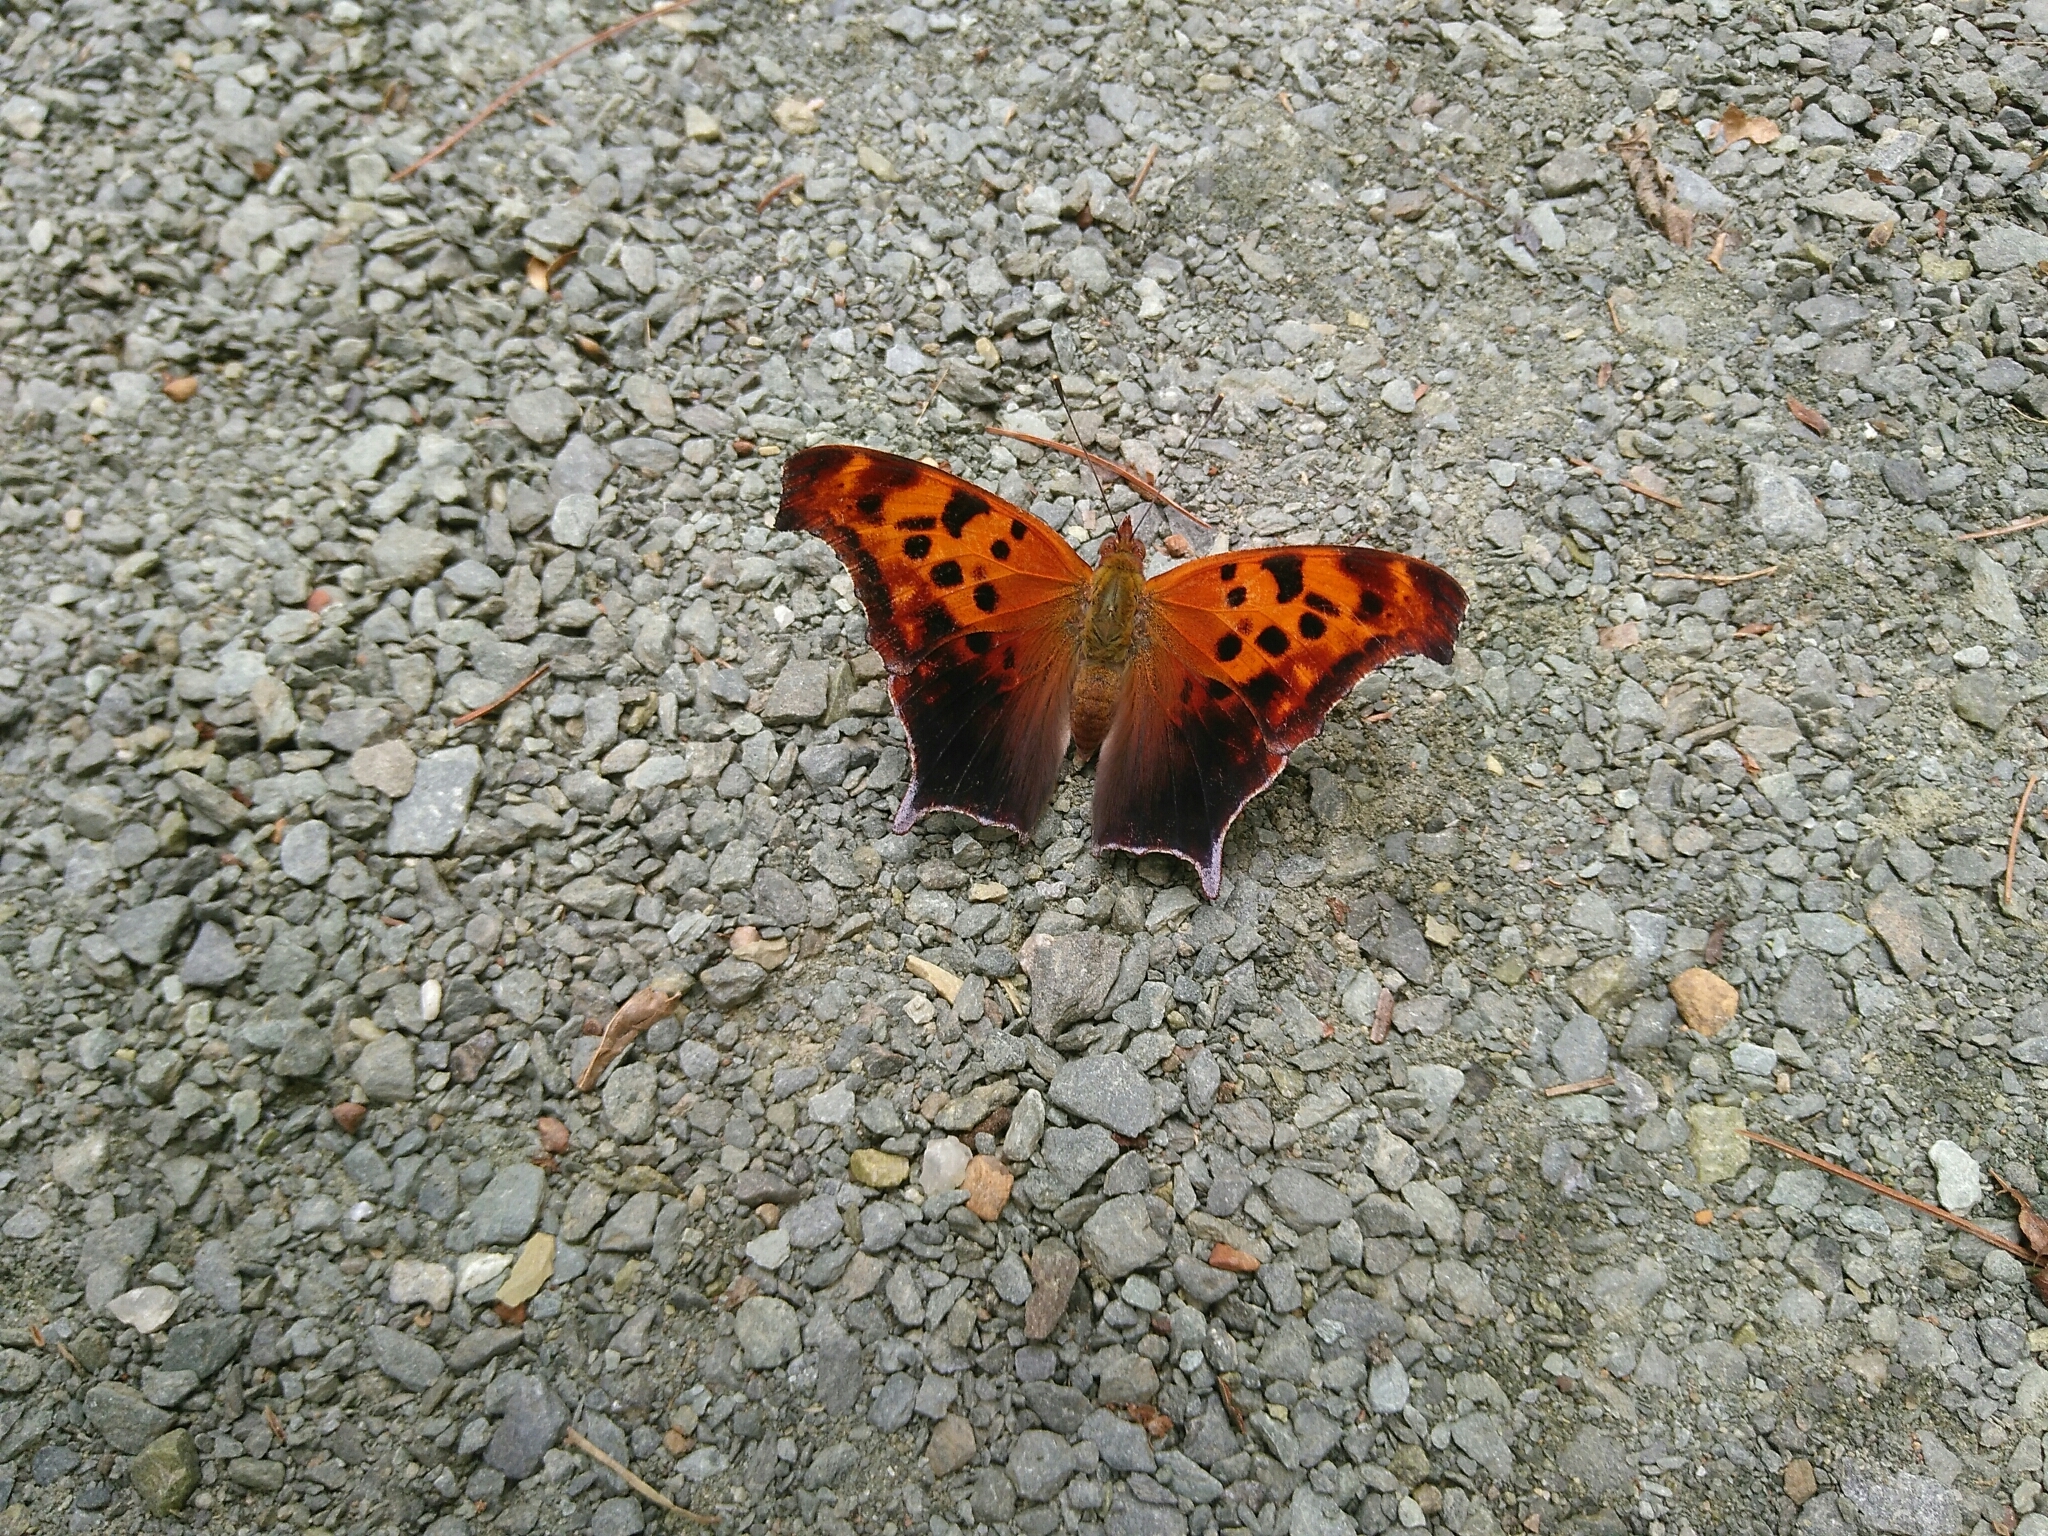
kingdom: Animalia
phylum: Arthropoda
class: Insecta
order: Lepidoptera
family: Nymphalidae
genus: Polygonia
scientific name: Polygonia interrogationis
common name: Question mark
